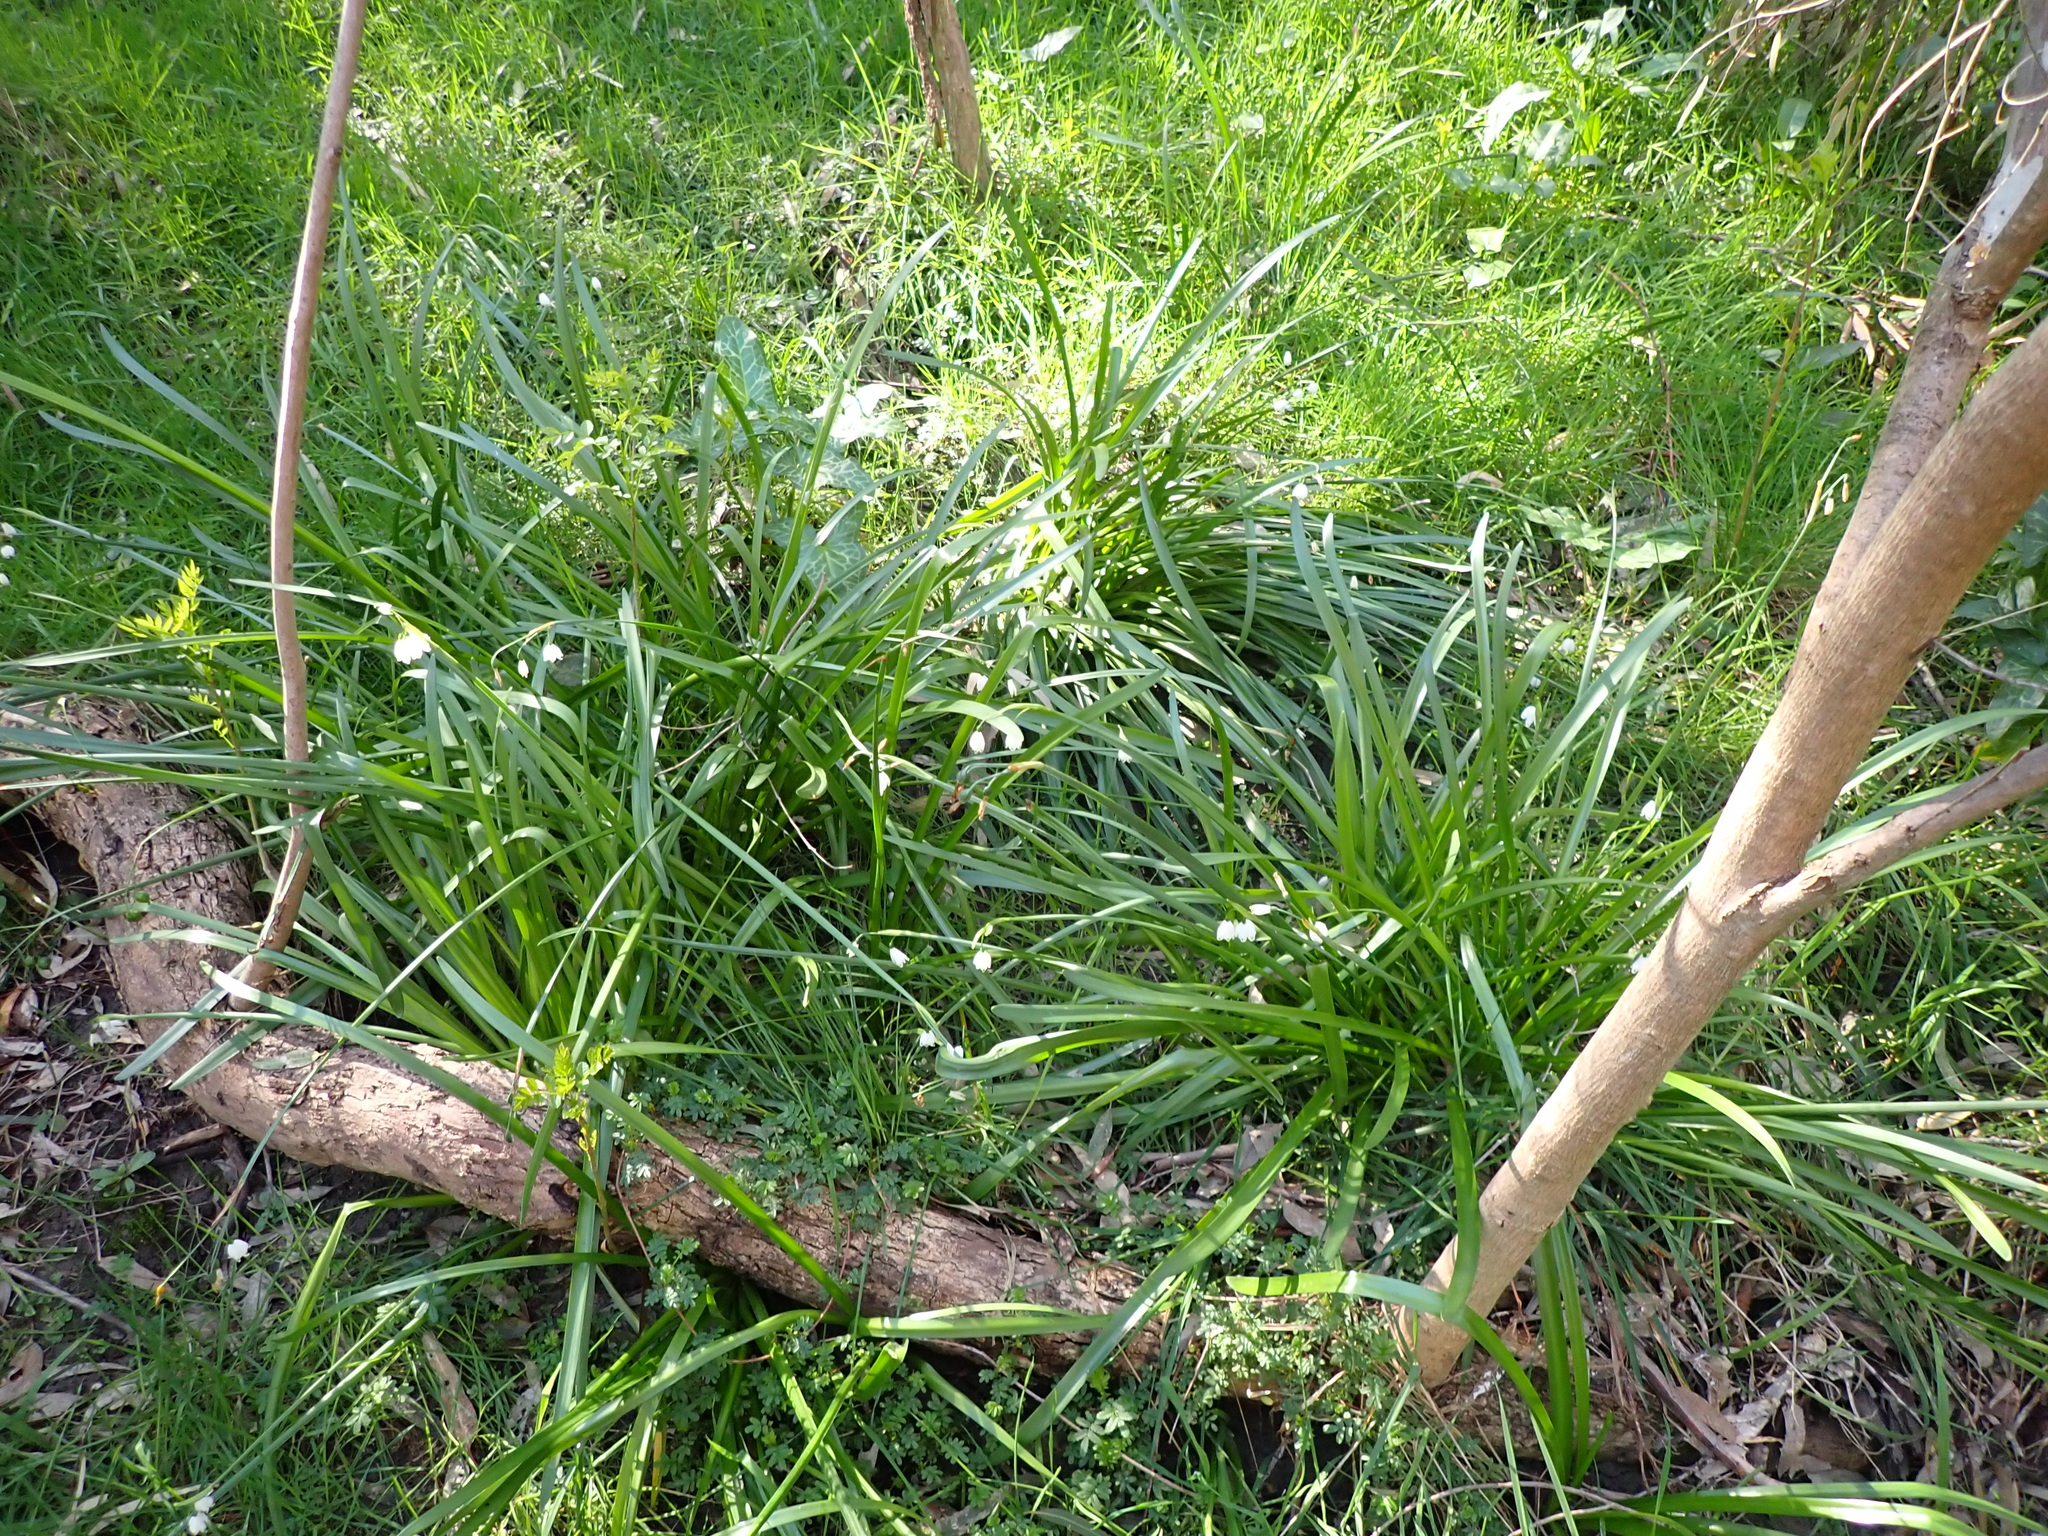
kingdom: Plantae
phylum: Tracheophyta
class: Liliopsida
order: Asparagales
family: Amaryllidaceae
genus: Leucojum
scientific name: Leucojum aestivum
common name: Summer snowflake
